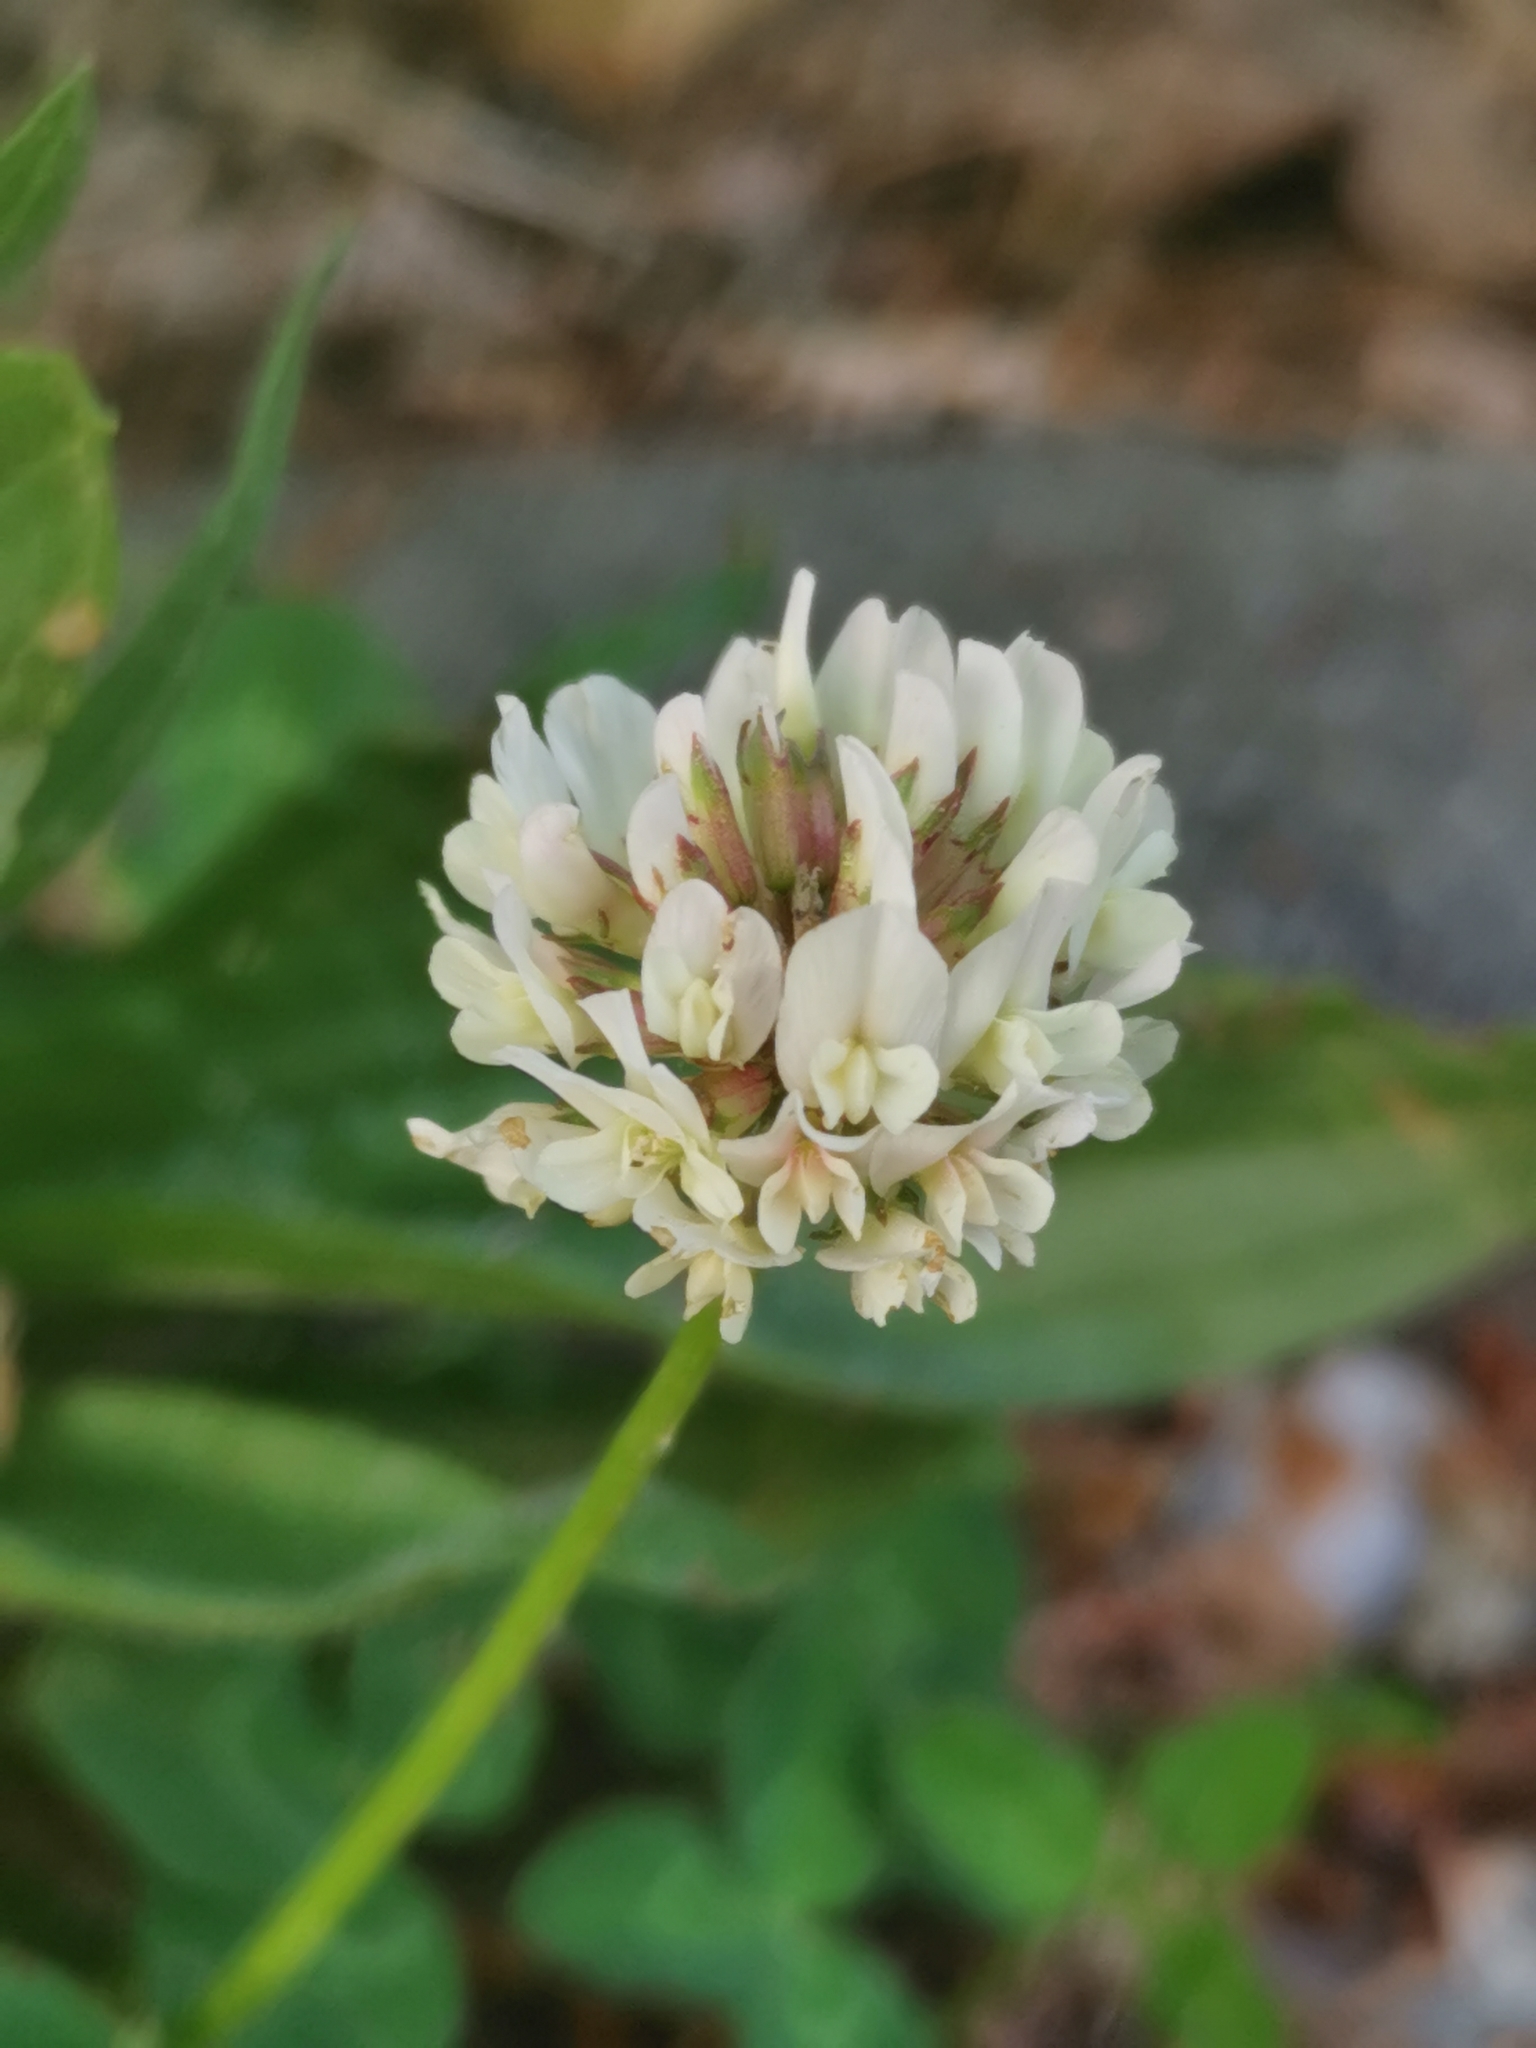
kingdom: Plantae
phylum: Tracheophyta
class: Magnoliopsida
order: Fabales
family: Fabaceae
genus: Trifolium
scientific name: Trifolium repens
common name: White clover
